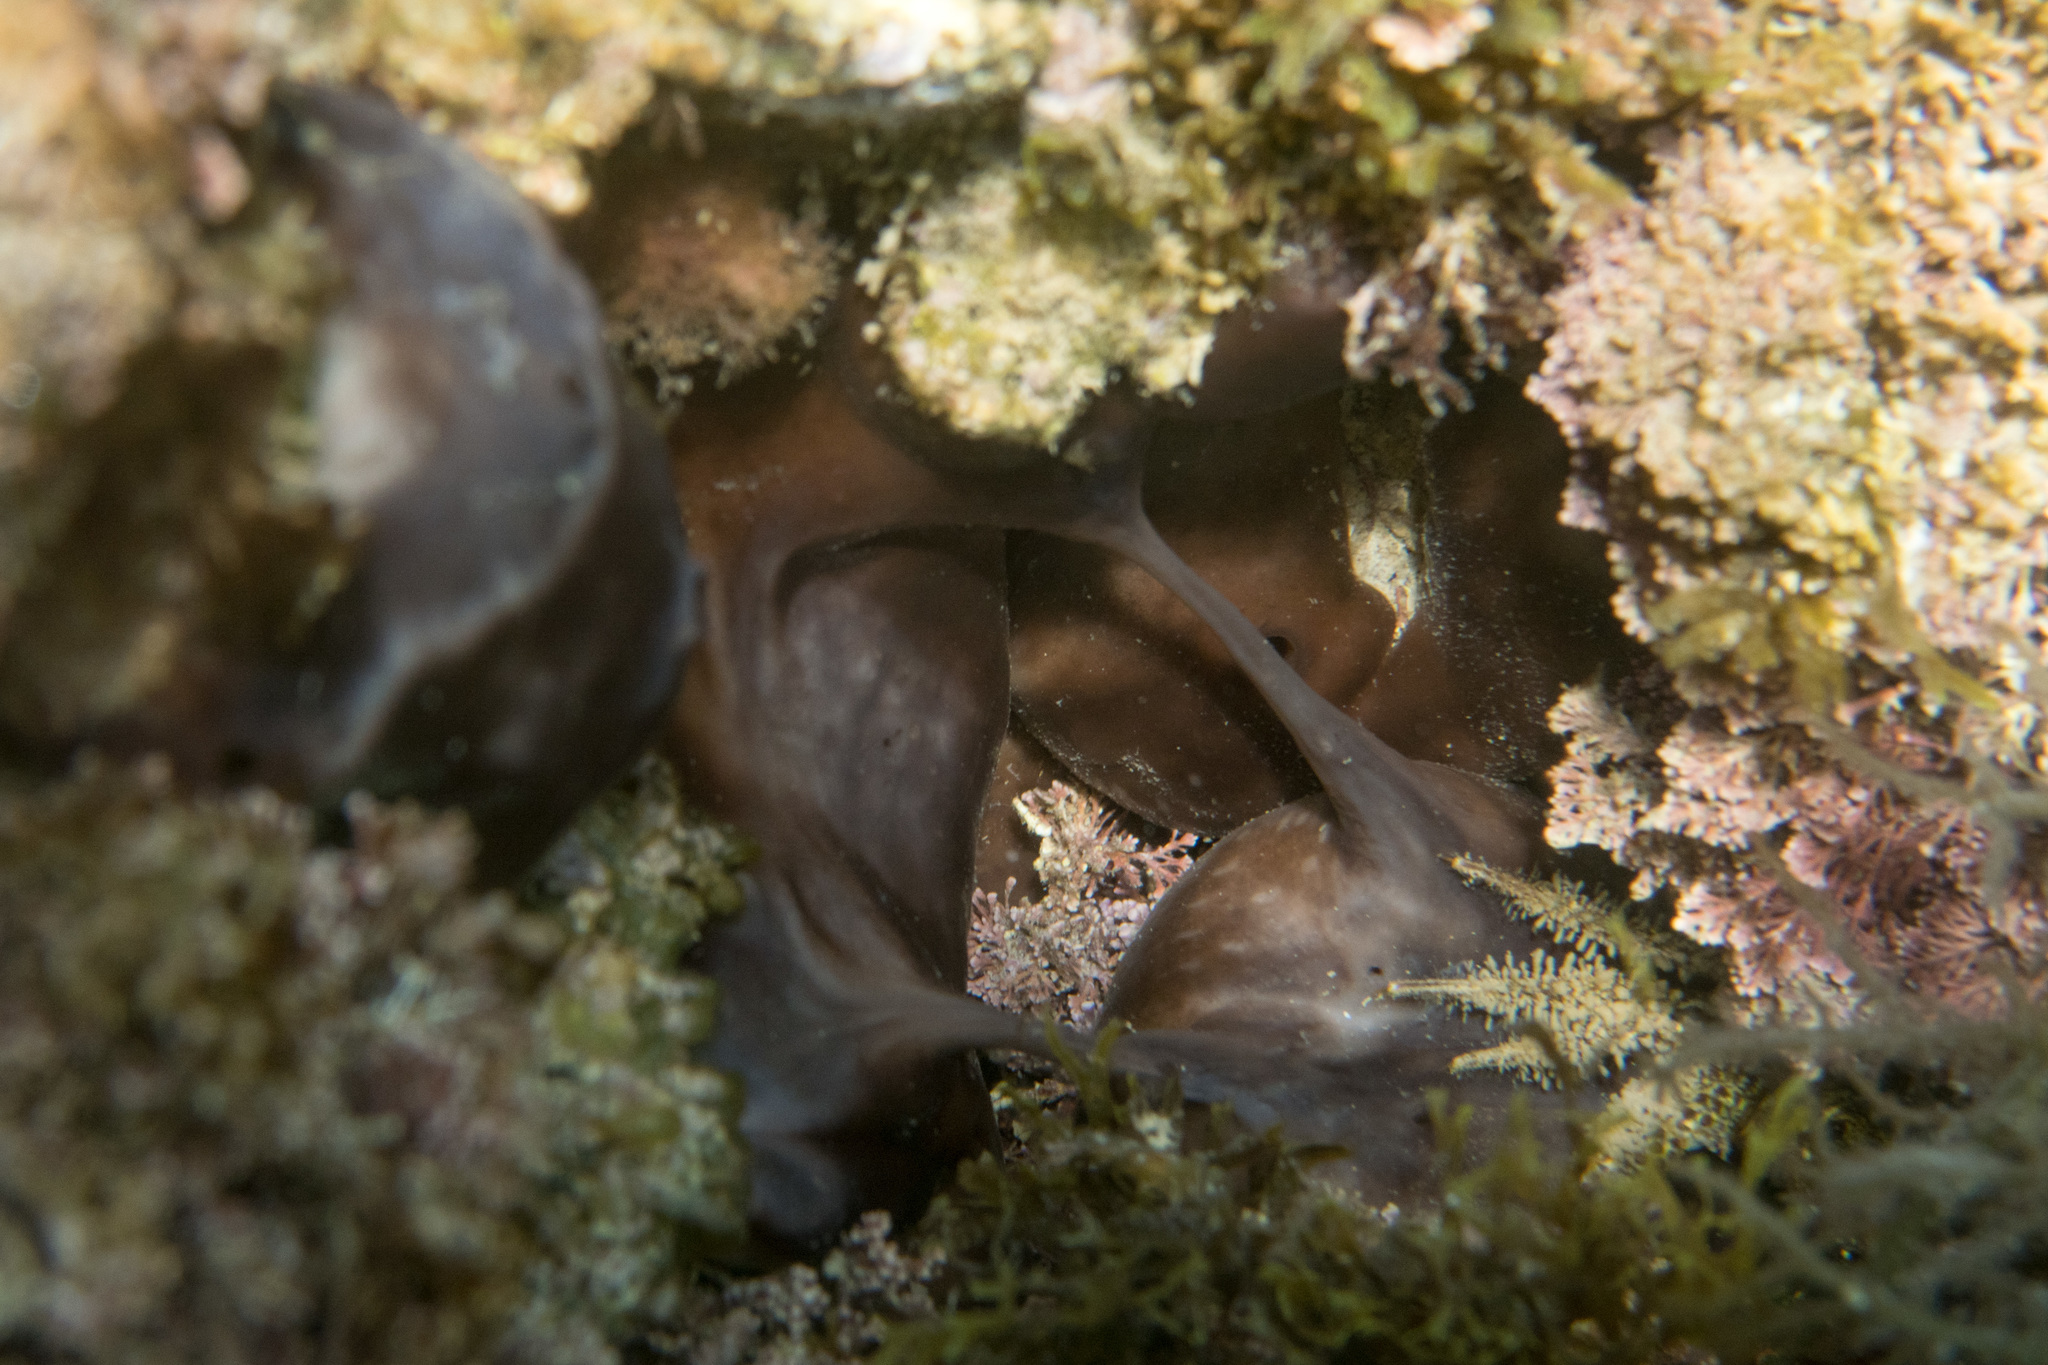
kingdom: Animalia
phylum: Porifera
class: Demospongiae
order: Chondrosiida
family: Chondrosiidae
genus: Chondrosia
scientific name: Chondrosia reniformis
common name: Chicken liver sponge
